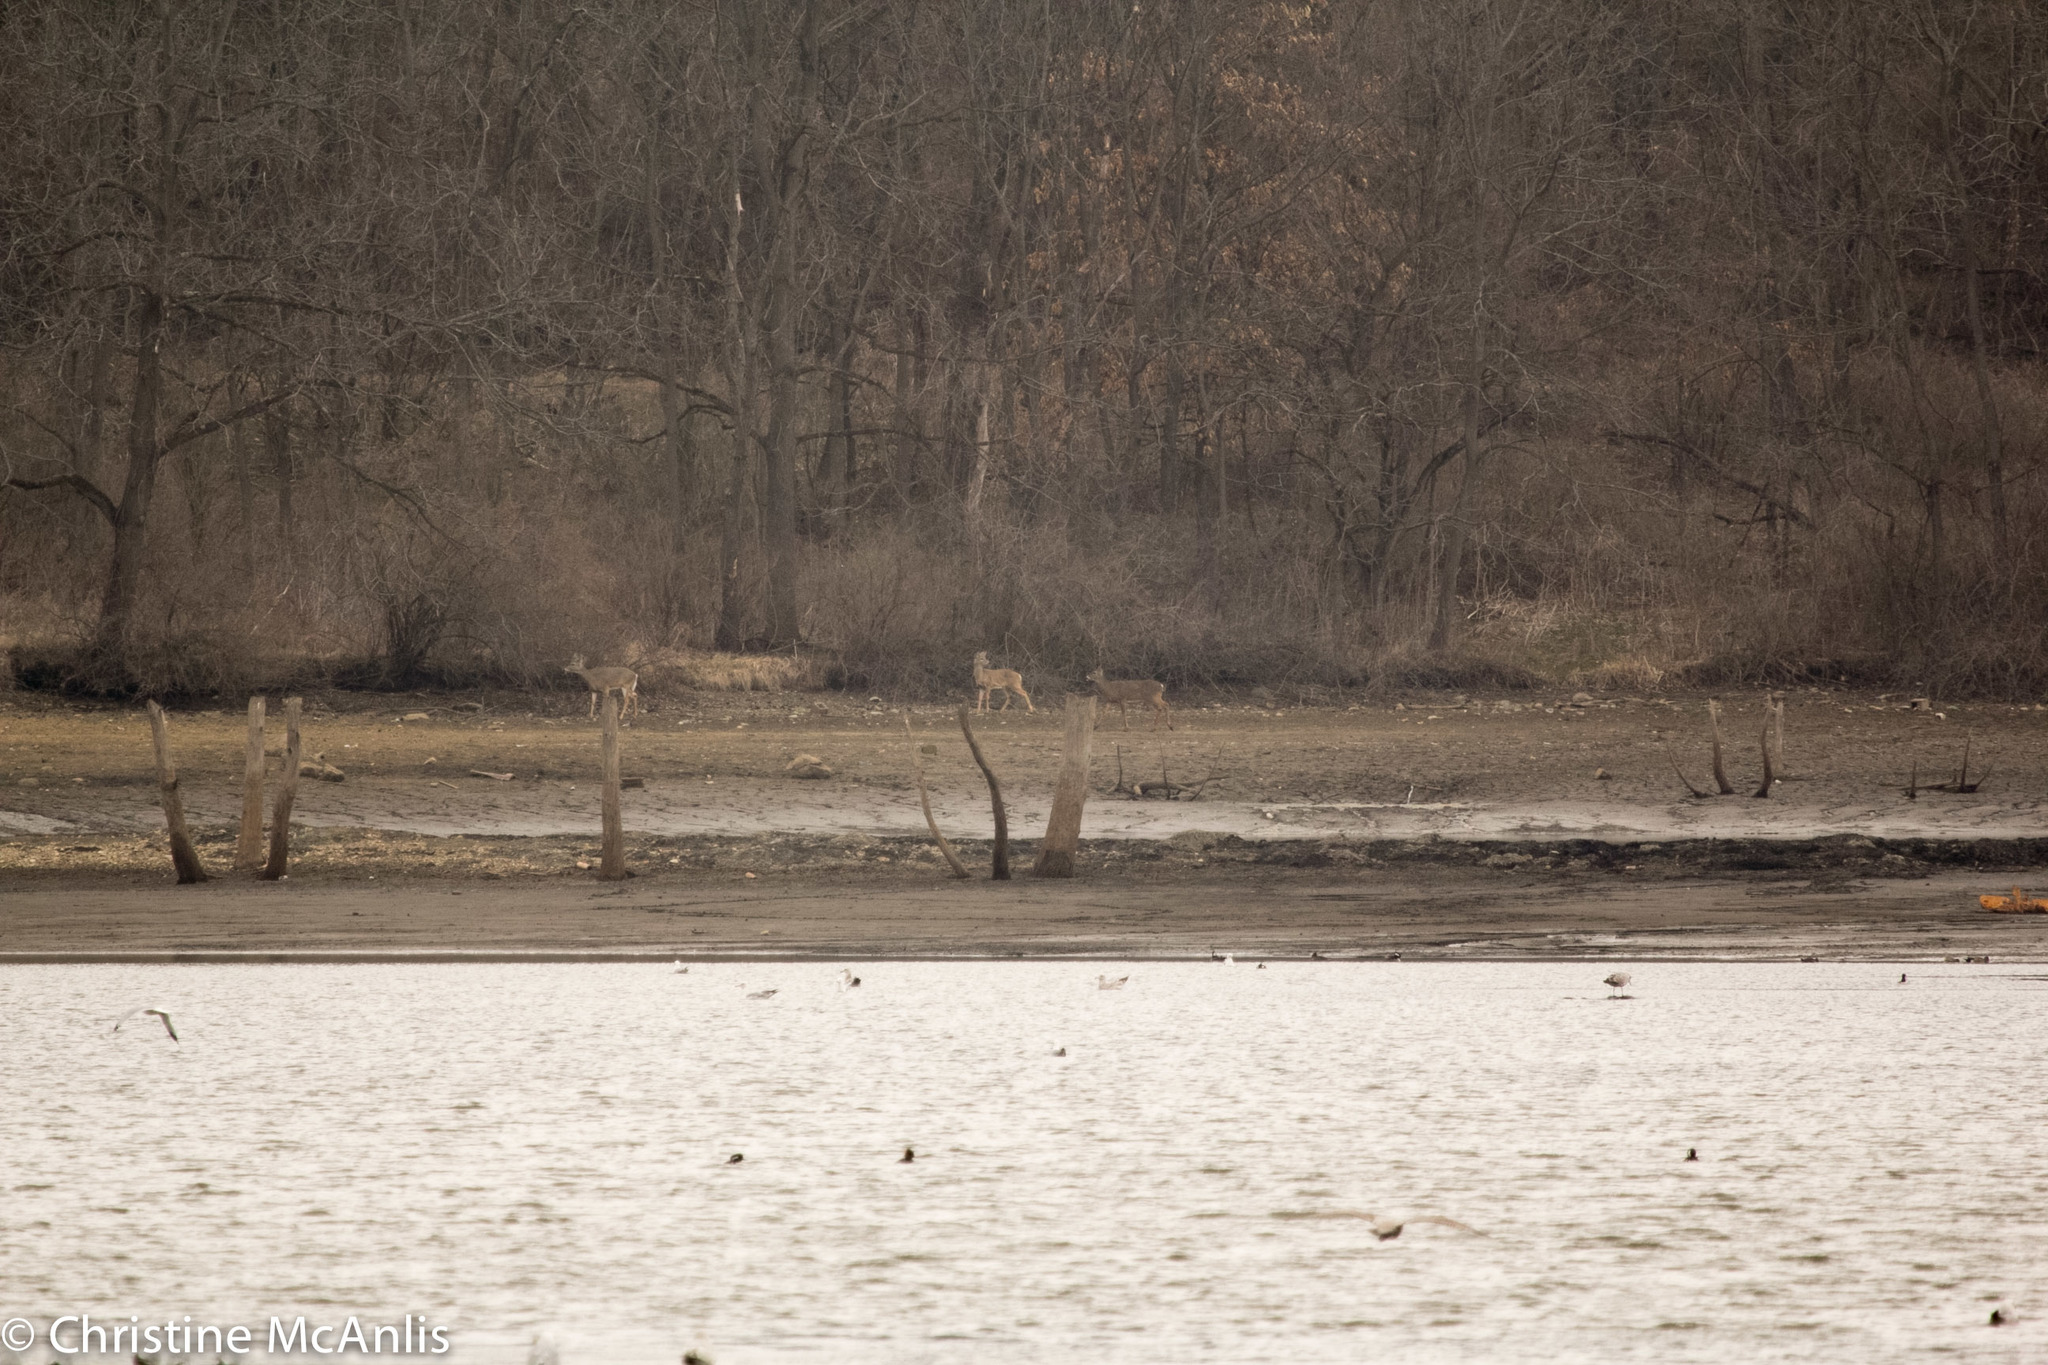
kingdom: Animalia
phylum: Chordata
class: Mammalia
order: Artiodactyla
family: Cervidae
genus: Odocoileus
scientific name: Odocoileus virginianus
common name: White-tailed deer
